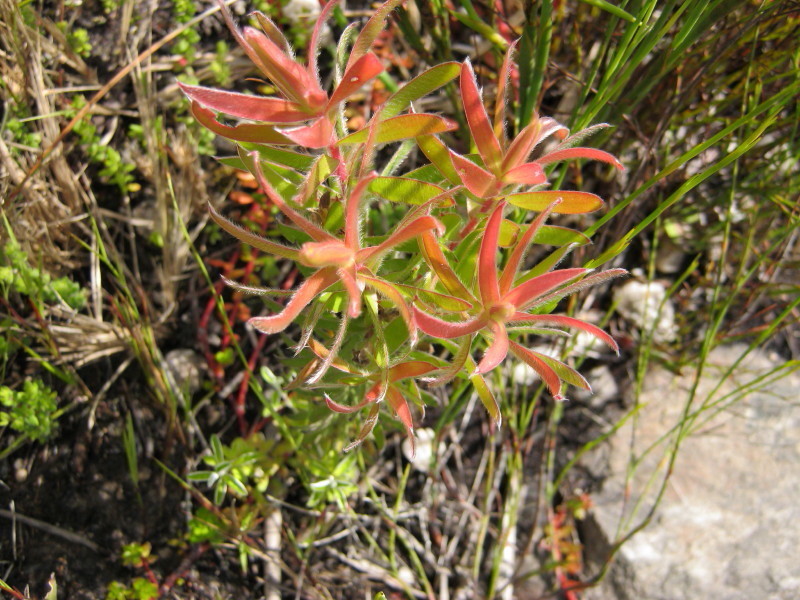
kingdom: Plantae
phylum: Tracheophyta
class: Magnoliopsida
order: Proteales
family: Proteaceae
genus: Leucadendron
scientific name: Leucadendron conicum
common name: Garden route conebush
